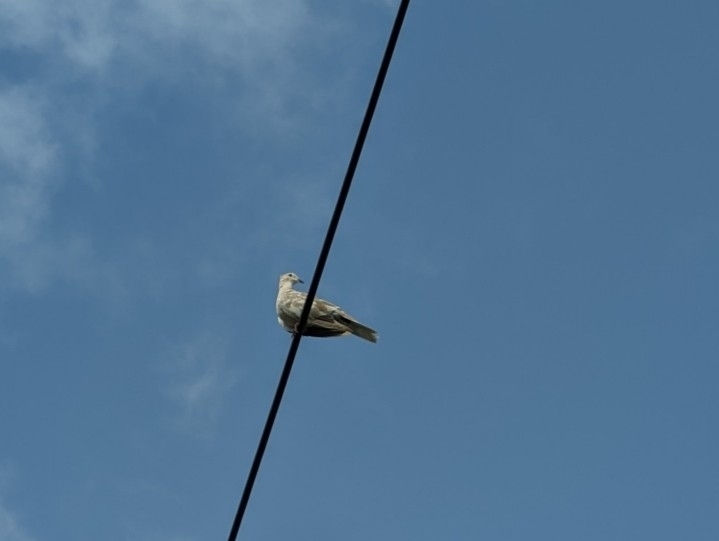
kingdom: Animalia
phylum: Chordata
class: Aves
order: Columbiformes
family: Columbidae
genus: Streptopelia
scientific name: Streptopelia decaocto
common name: Eurasian collared dove
